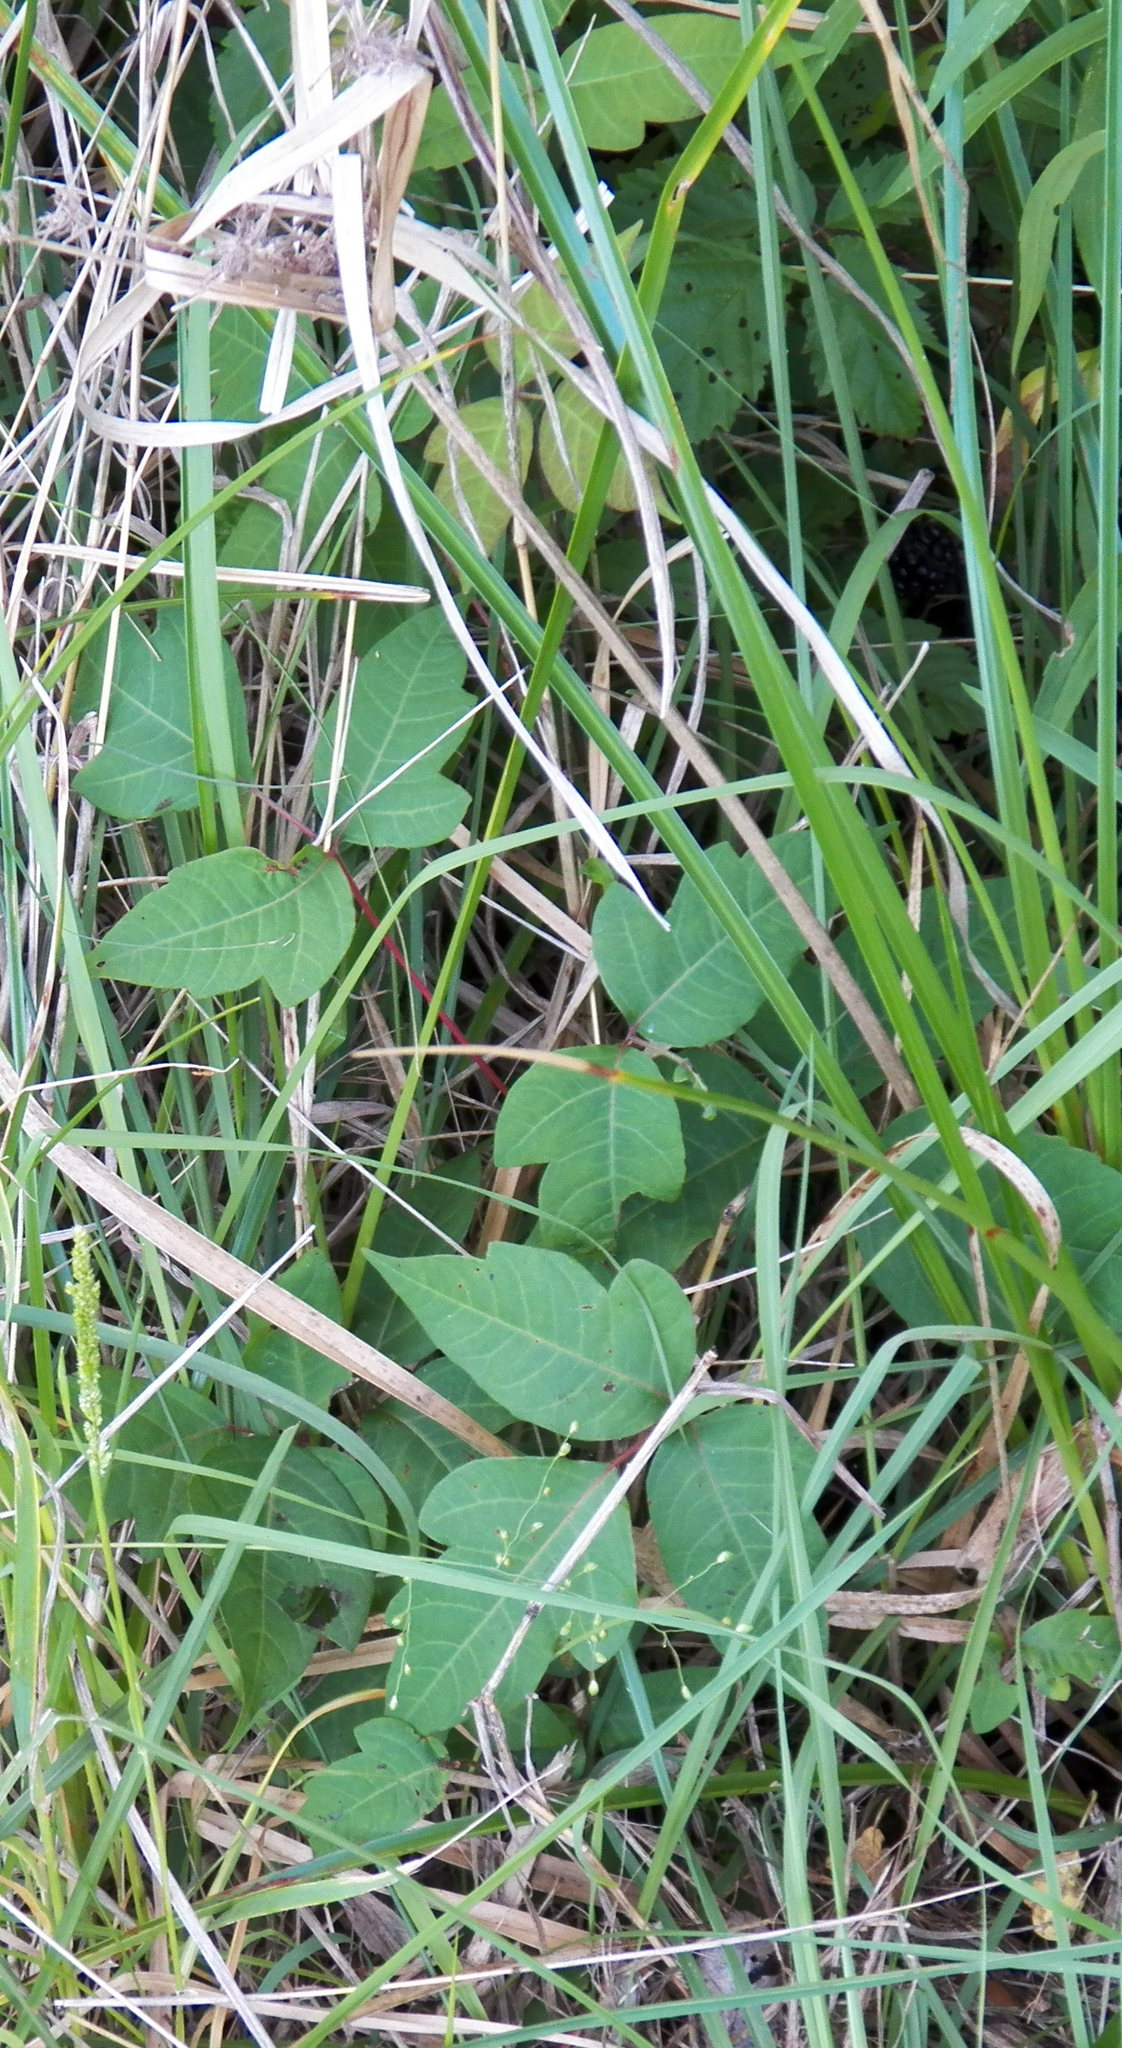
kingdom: Plantae
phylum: Tracheophyta
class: Magnoliopsida
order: Sapindales
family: Anacardiaceae
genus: Toxicodendron
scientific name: Toxicodendron radicans
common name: Poison ivy
